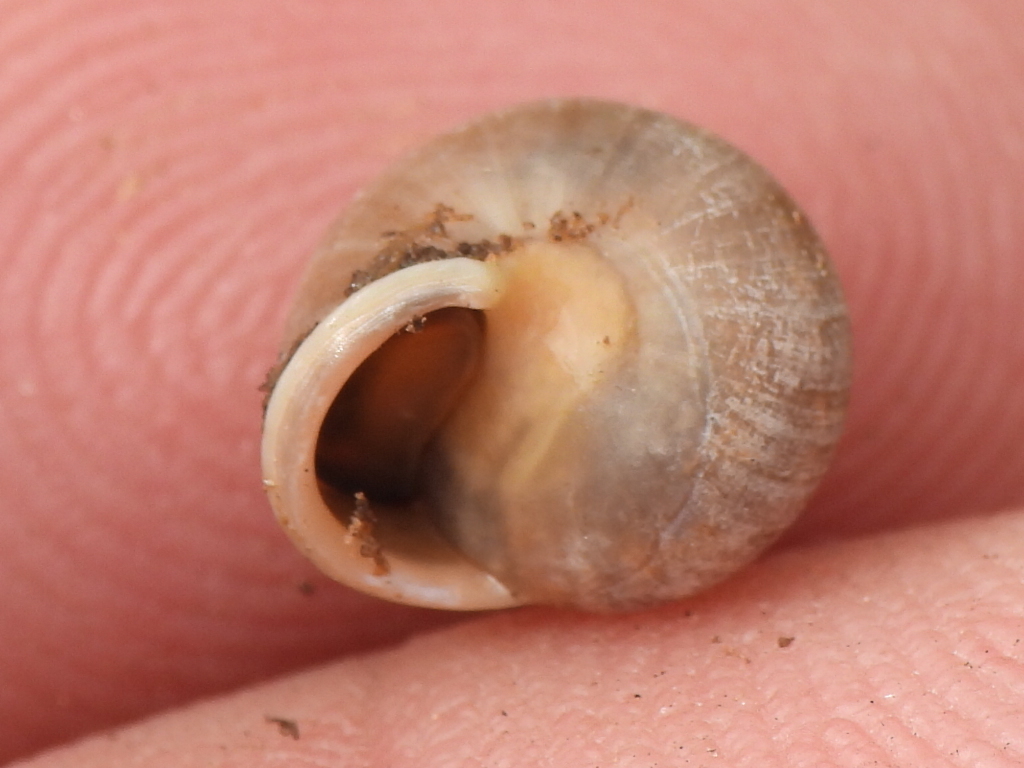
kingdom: Animalia
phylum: Mollusca
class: Gastropoda
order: Cycloneritida
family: Helicinidae
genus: Helicina
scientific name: Helicina orbiculata
